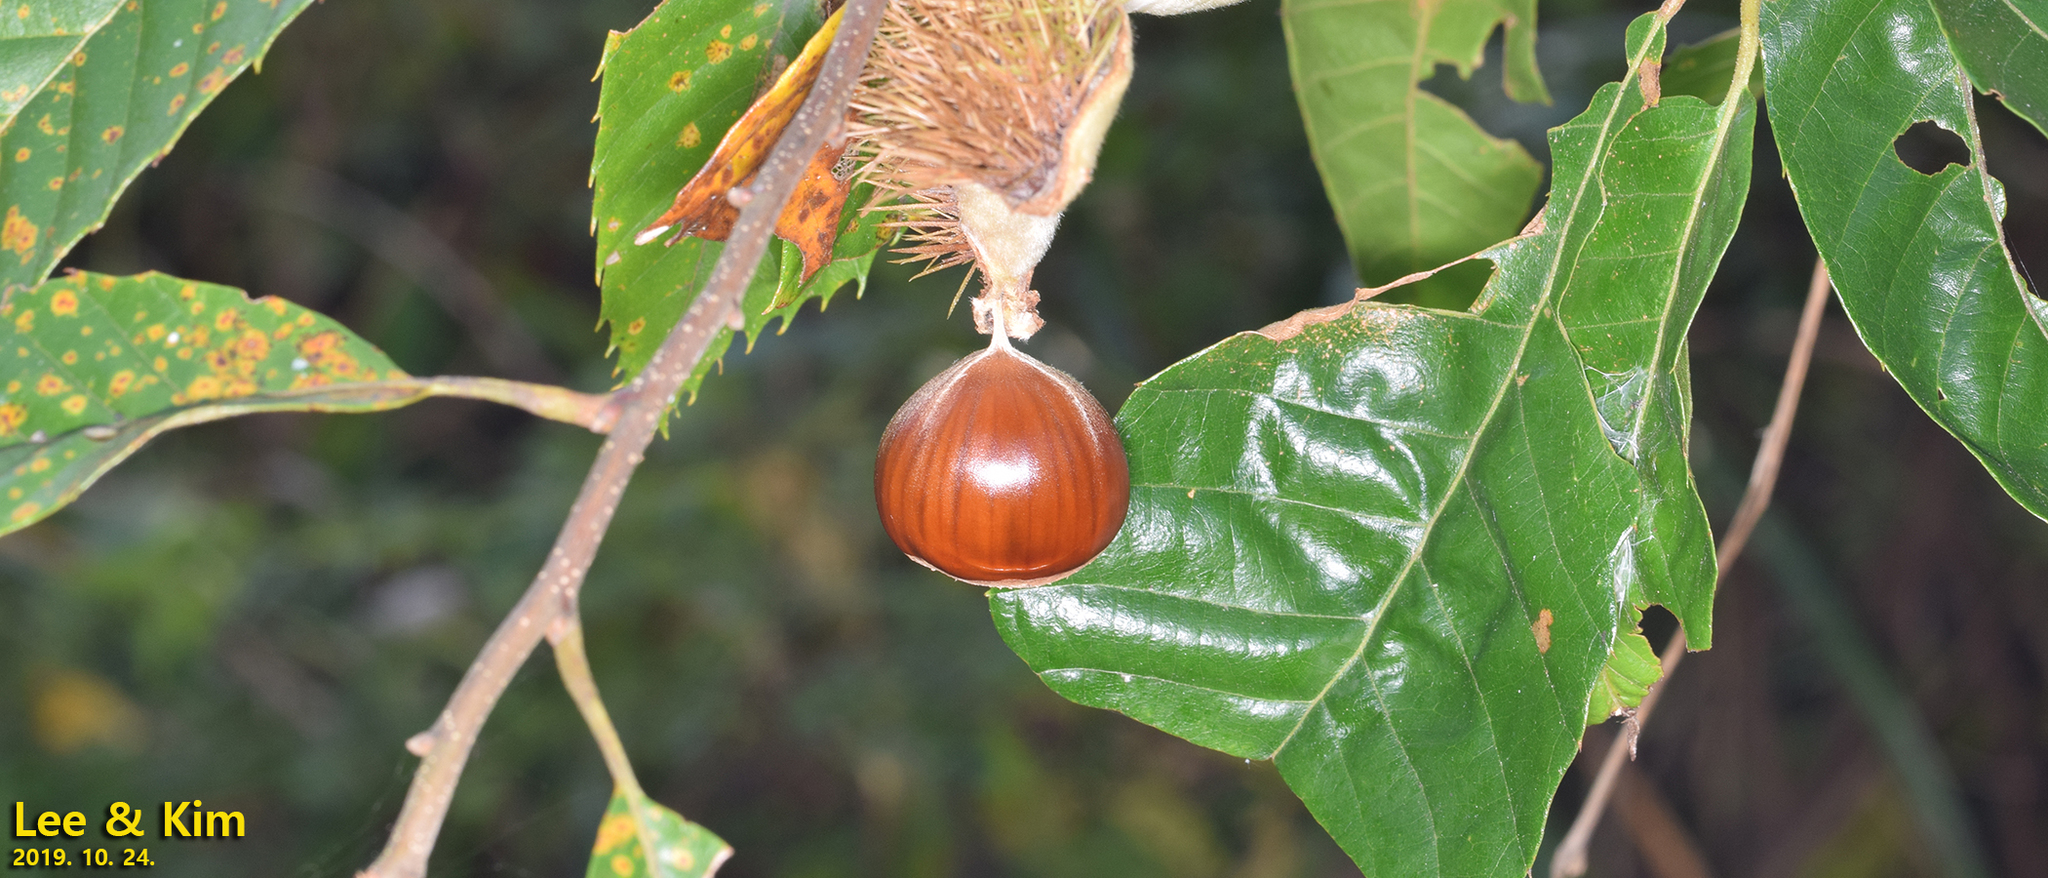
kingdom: Plantae
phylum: Tracheophyta
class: Magnoliopsida
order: Fagales
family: Fagaceae
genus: Castanea
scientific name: Castanea crenata
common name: Japanese chestnut
